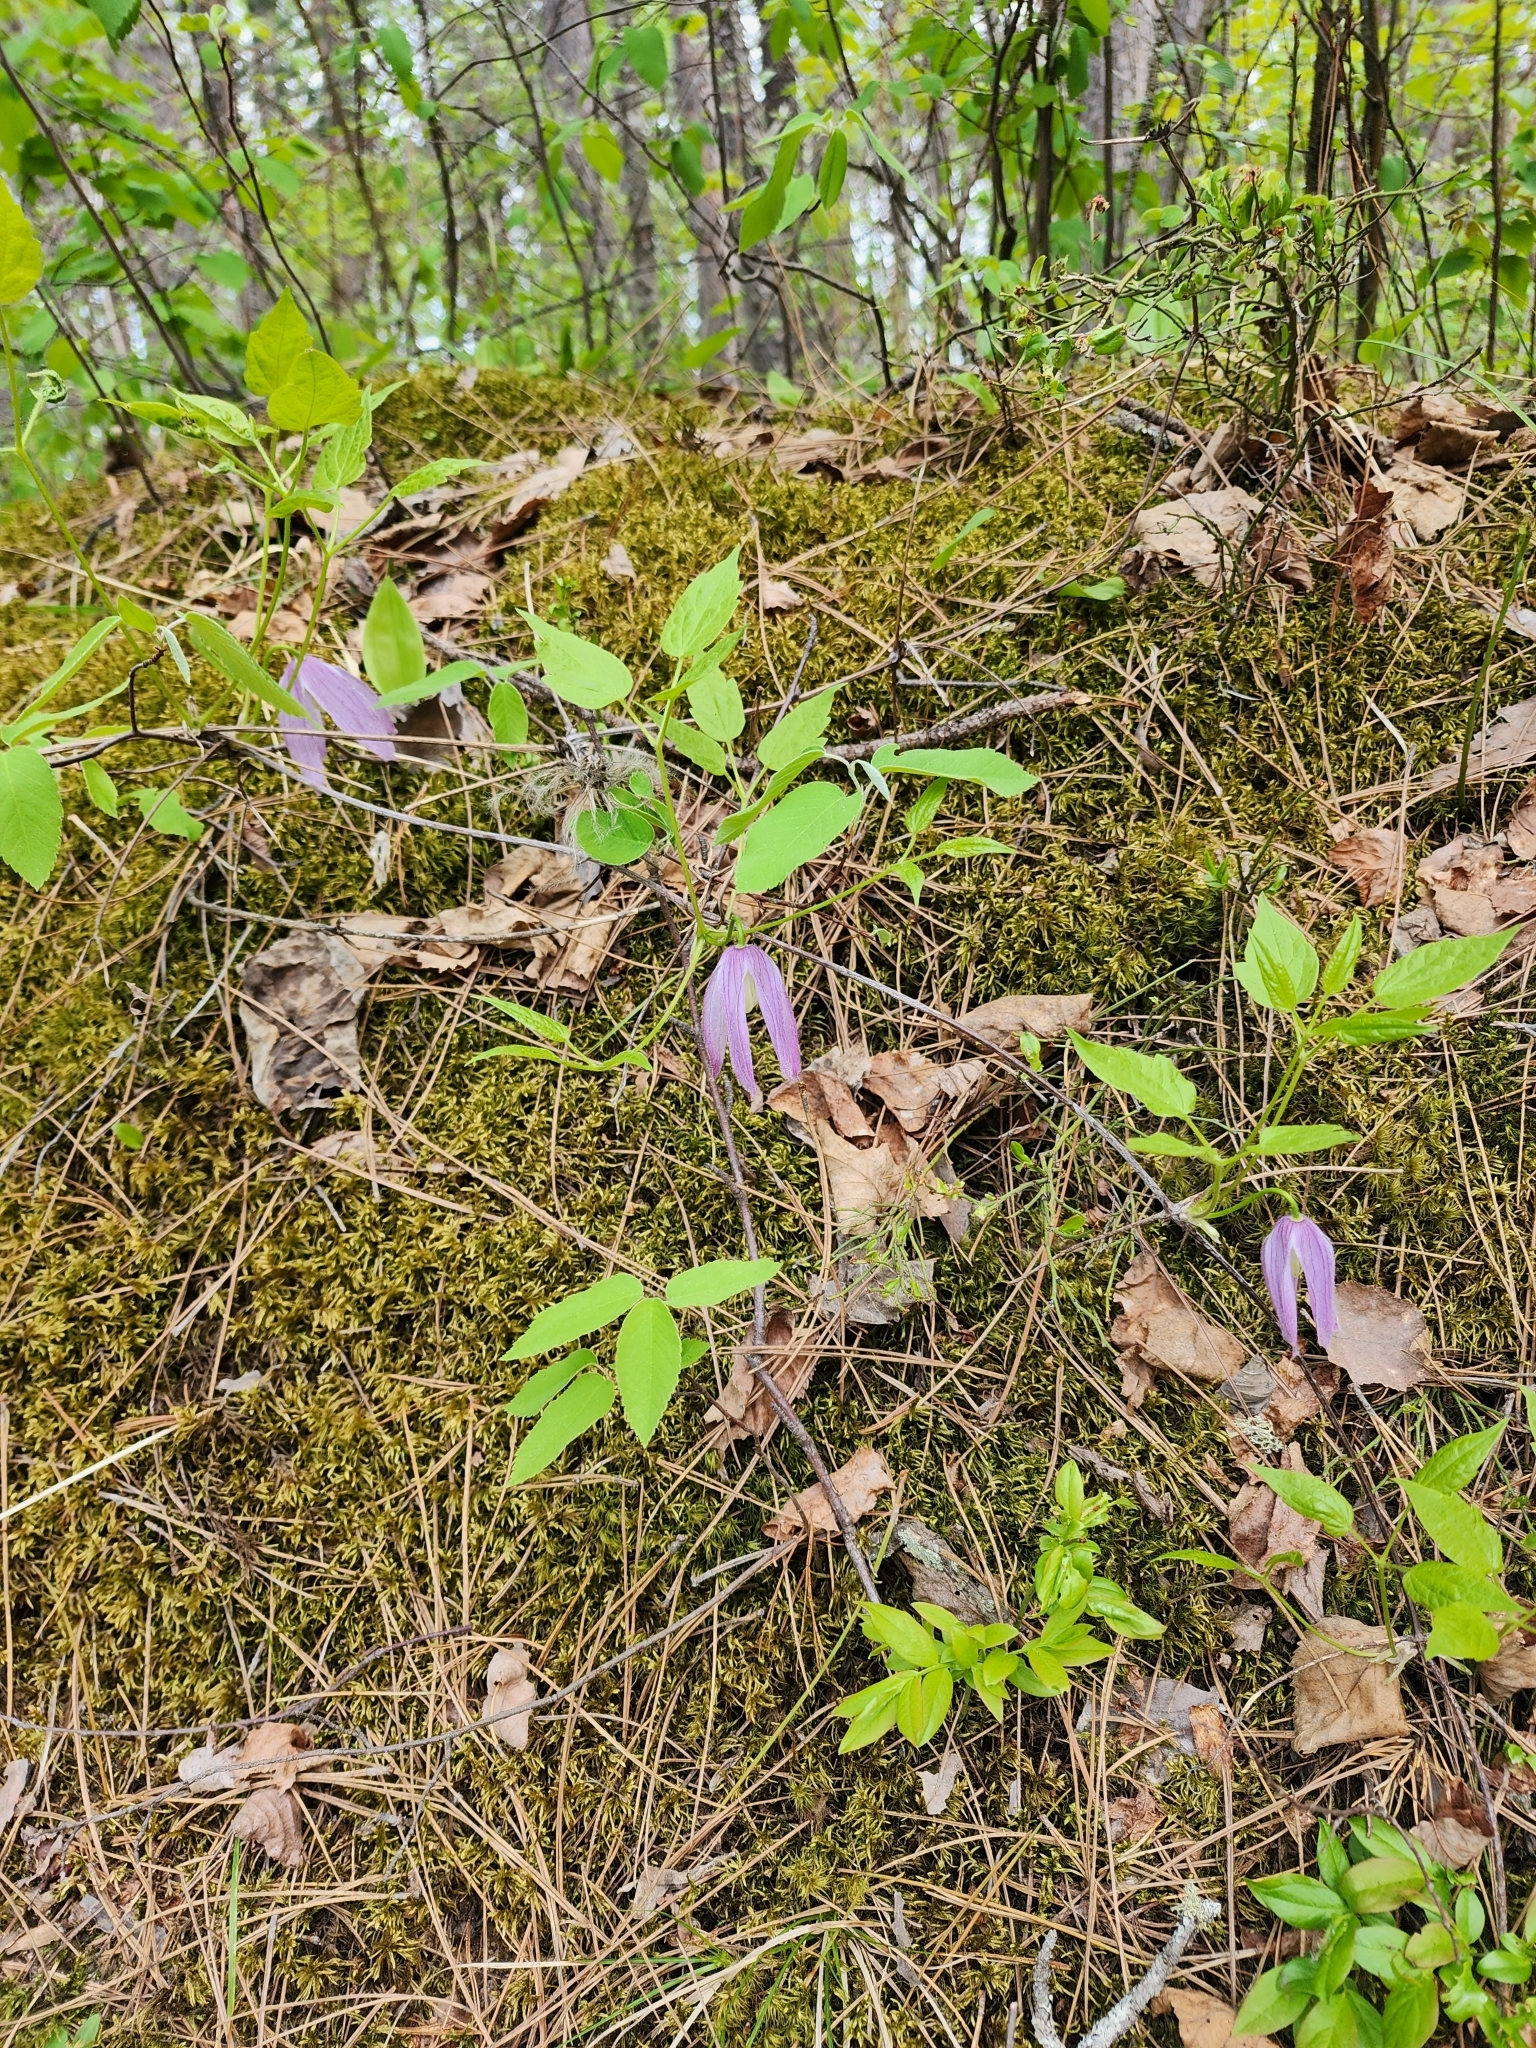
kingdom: Plantae
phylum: Tracheophyta
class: Magnoliopsida
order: Ranunculales
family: Ranunculaceae
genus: Clematis
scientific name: Clematis occidentalis
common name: Purple clematis
